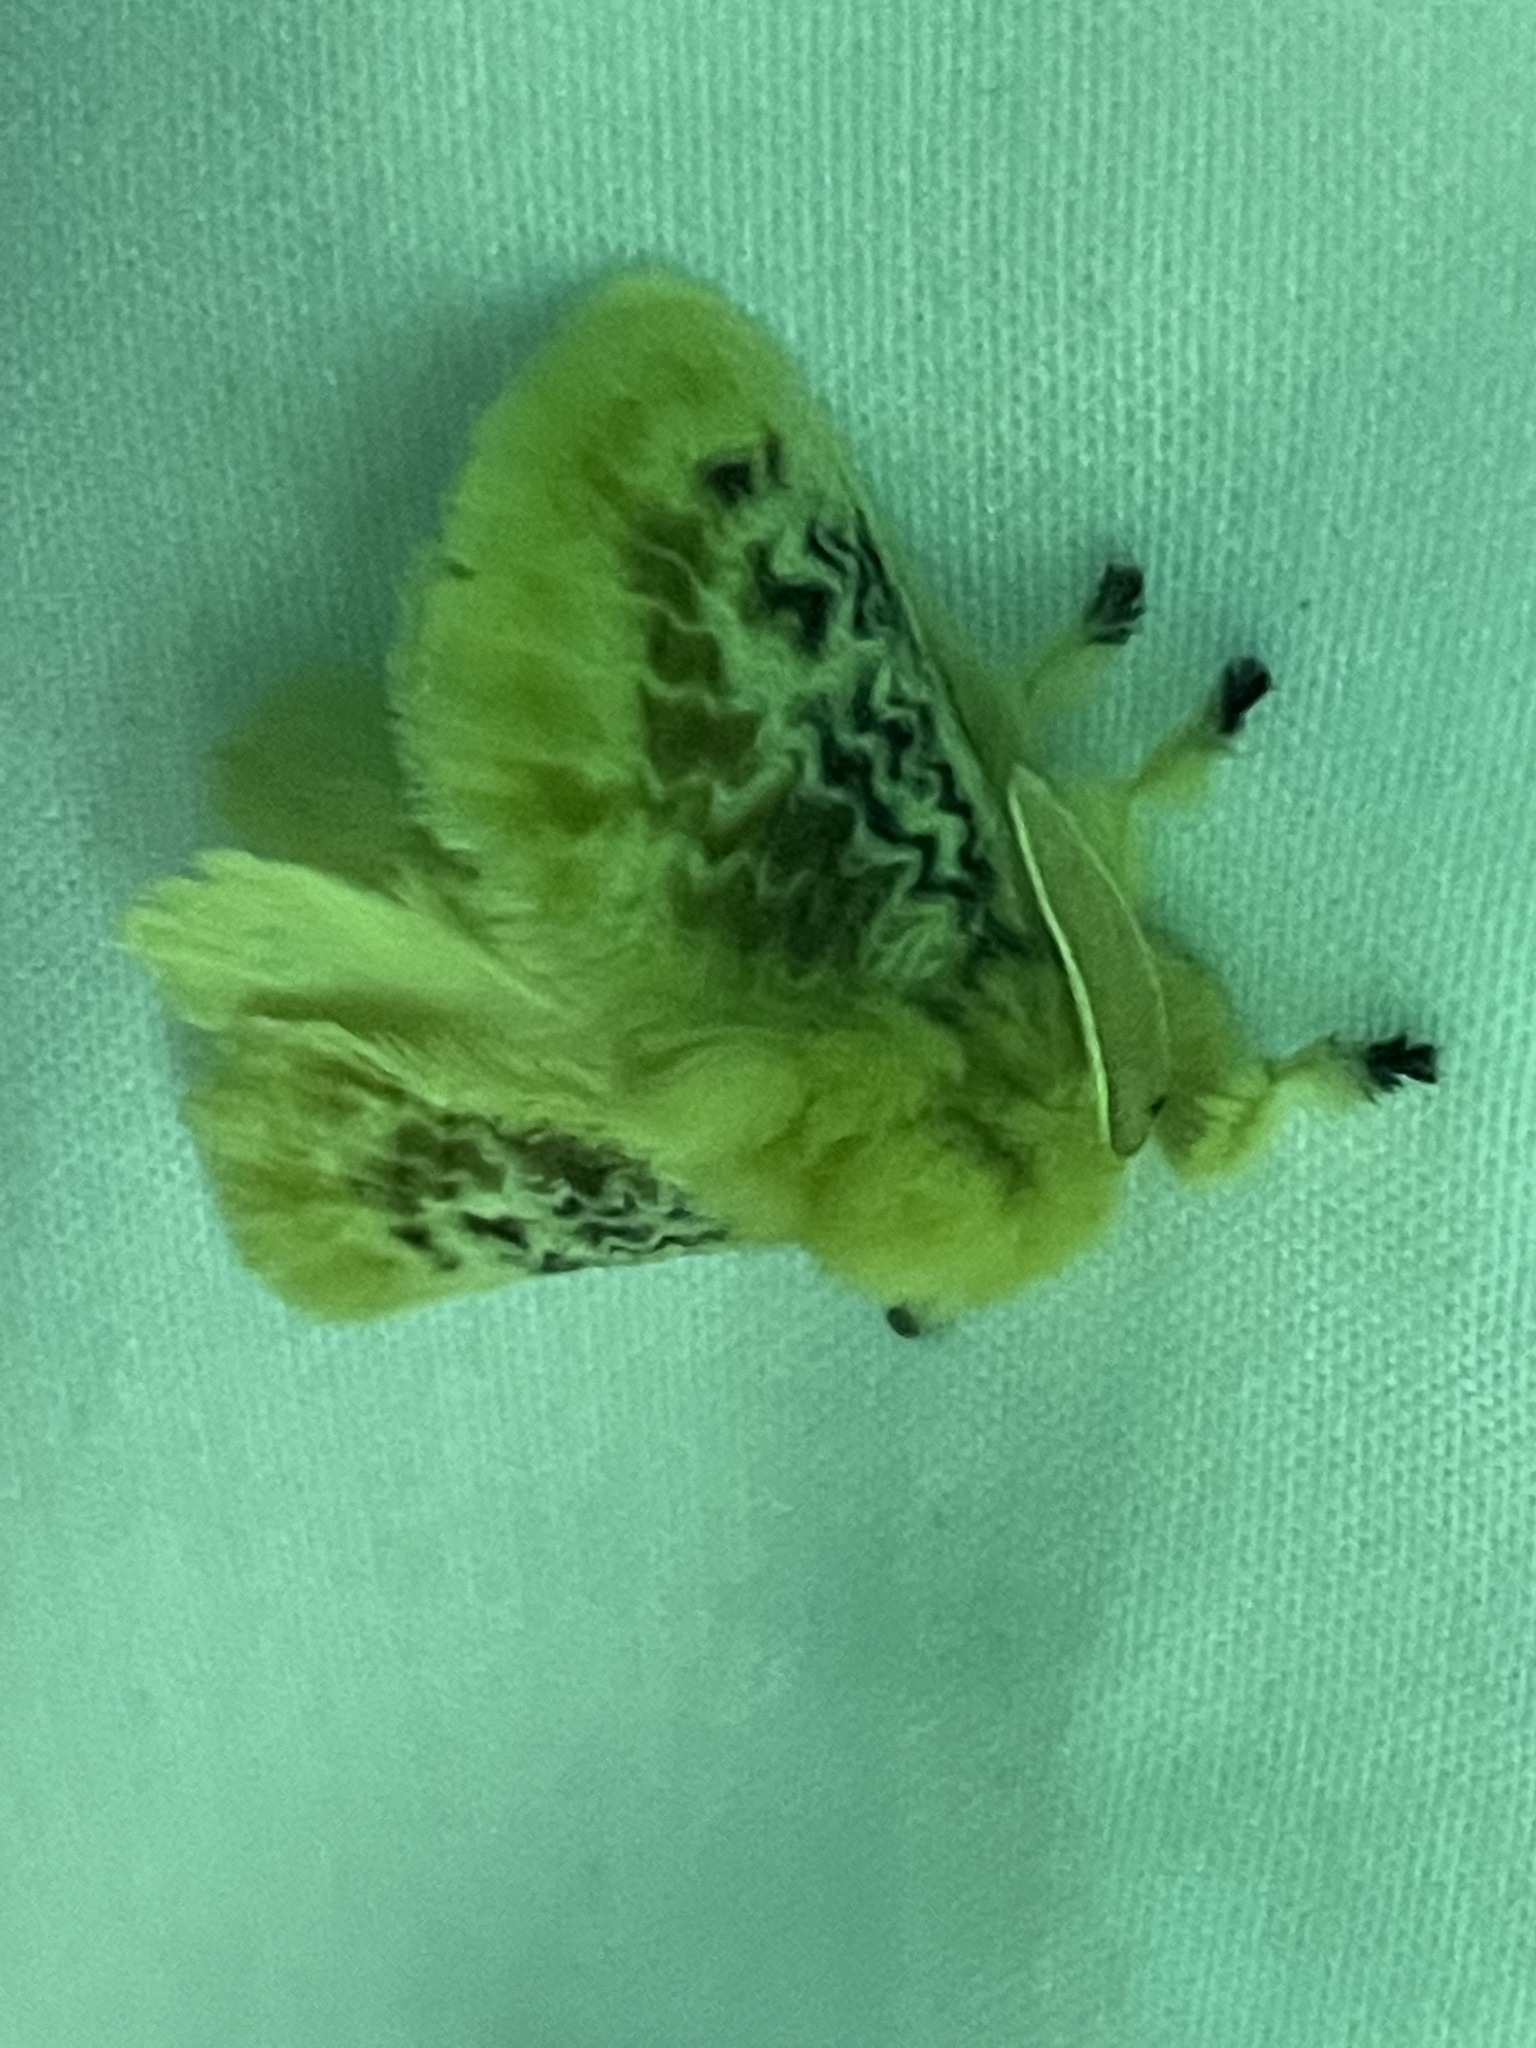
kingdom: Animalia
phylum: Arthropoda
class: Insecta
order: Lepidoptera
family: Megalopygidae
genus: Megalopyge
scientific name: Megalopyge crispata
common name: Black-waved flannel moth
